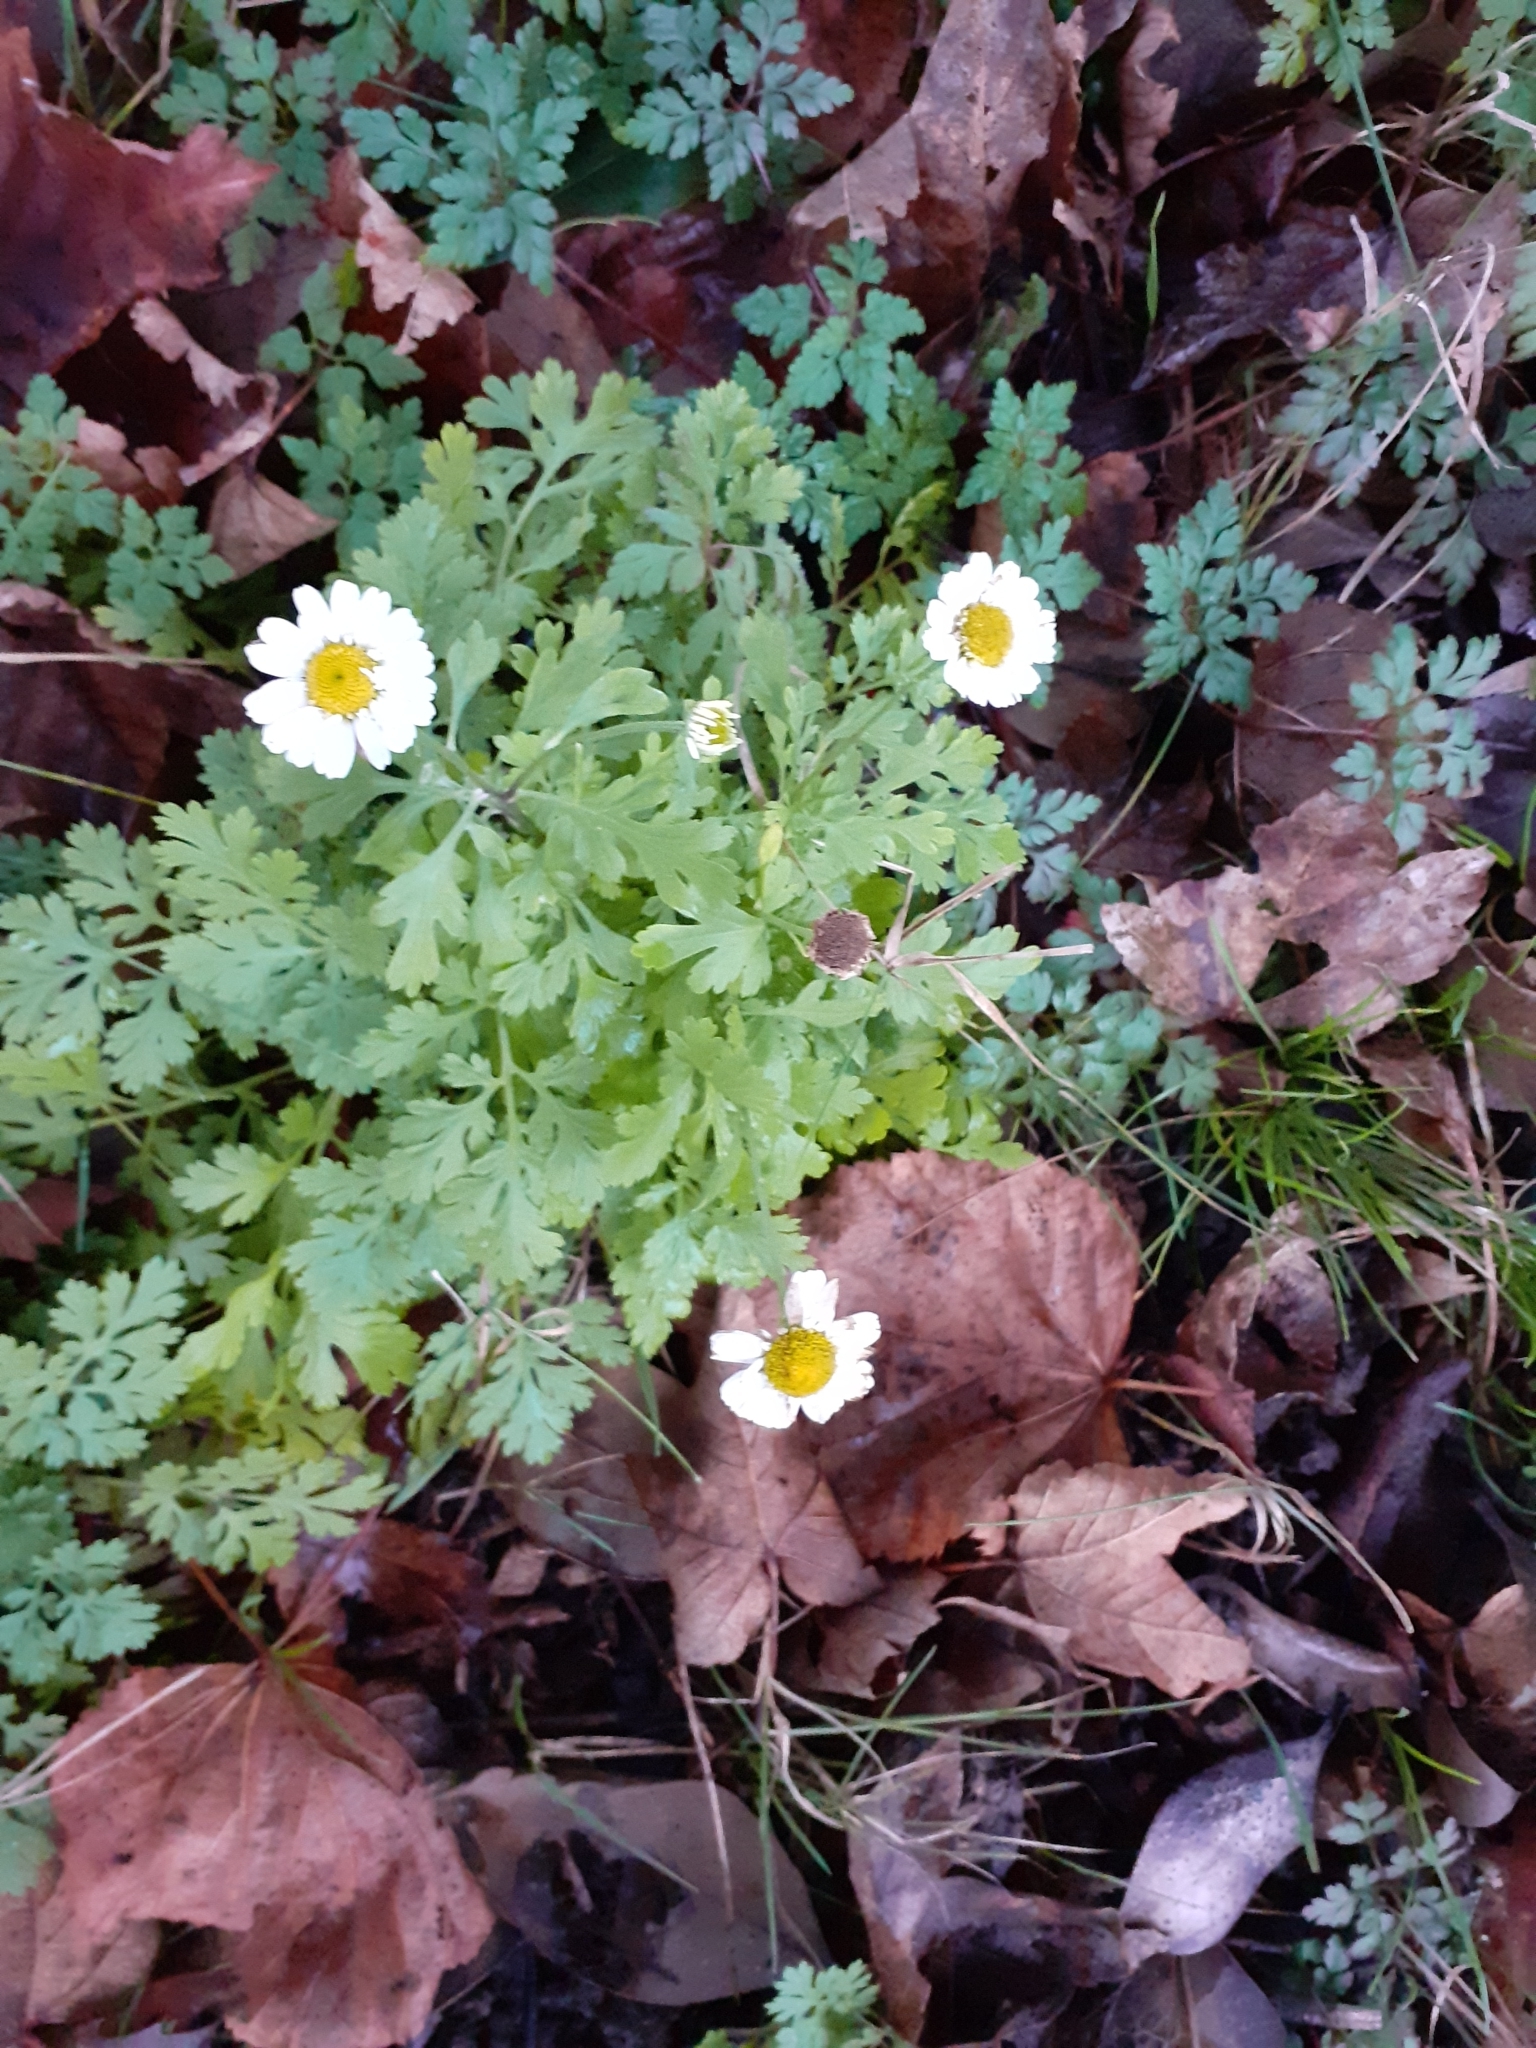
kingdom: Plantae
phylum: Tracheophyta
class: Magnoliopsida
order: Asterales
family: Asteraceae
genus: Tanacetum
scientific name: Tanacetum parthenium
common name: Feverfew
